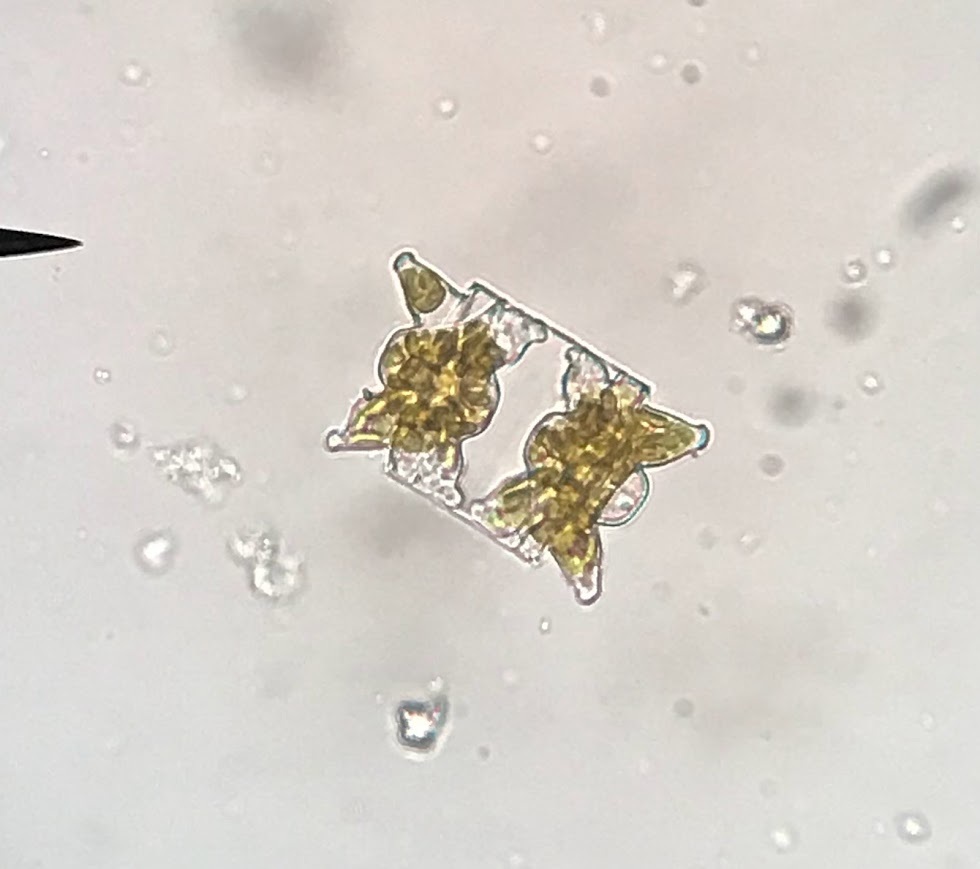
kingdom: Chromista
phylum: Ochrophyta
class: Bacillariophyceae
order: Triceratiales
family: Triceratiaceae
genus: Odontella
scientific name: Odontella aurita
